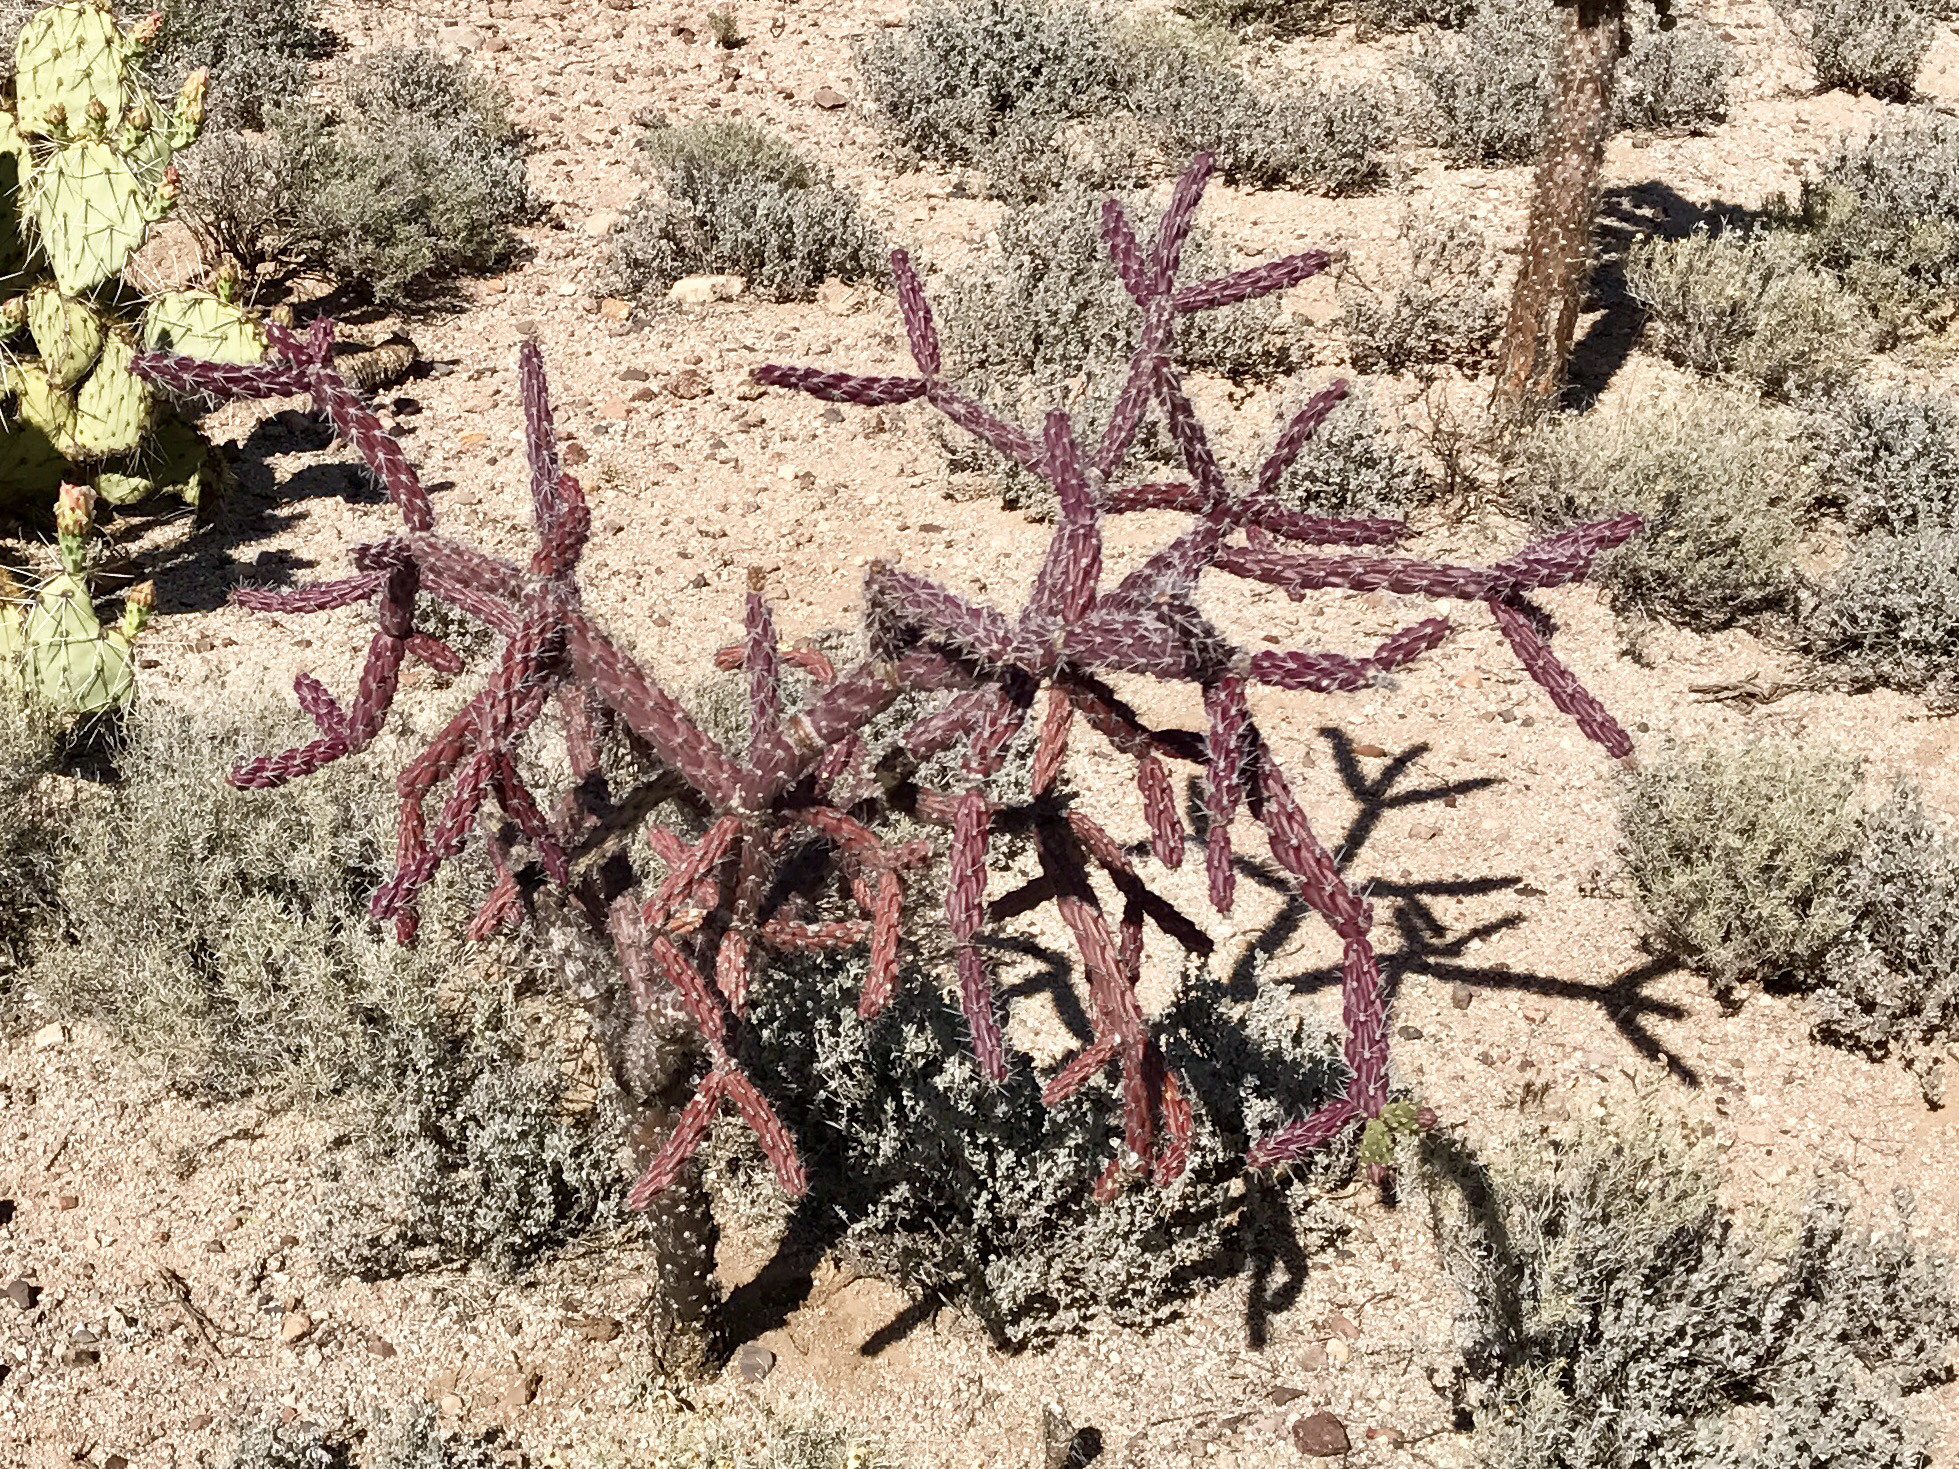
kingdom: Plantae
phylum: Tracheophyta
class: Magnoliopsida
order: Caryophyllales
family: Cactaceae
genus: Cylindropuntia
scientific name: Cylindropuntia imbricata
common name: Candelabrum cactus
